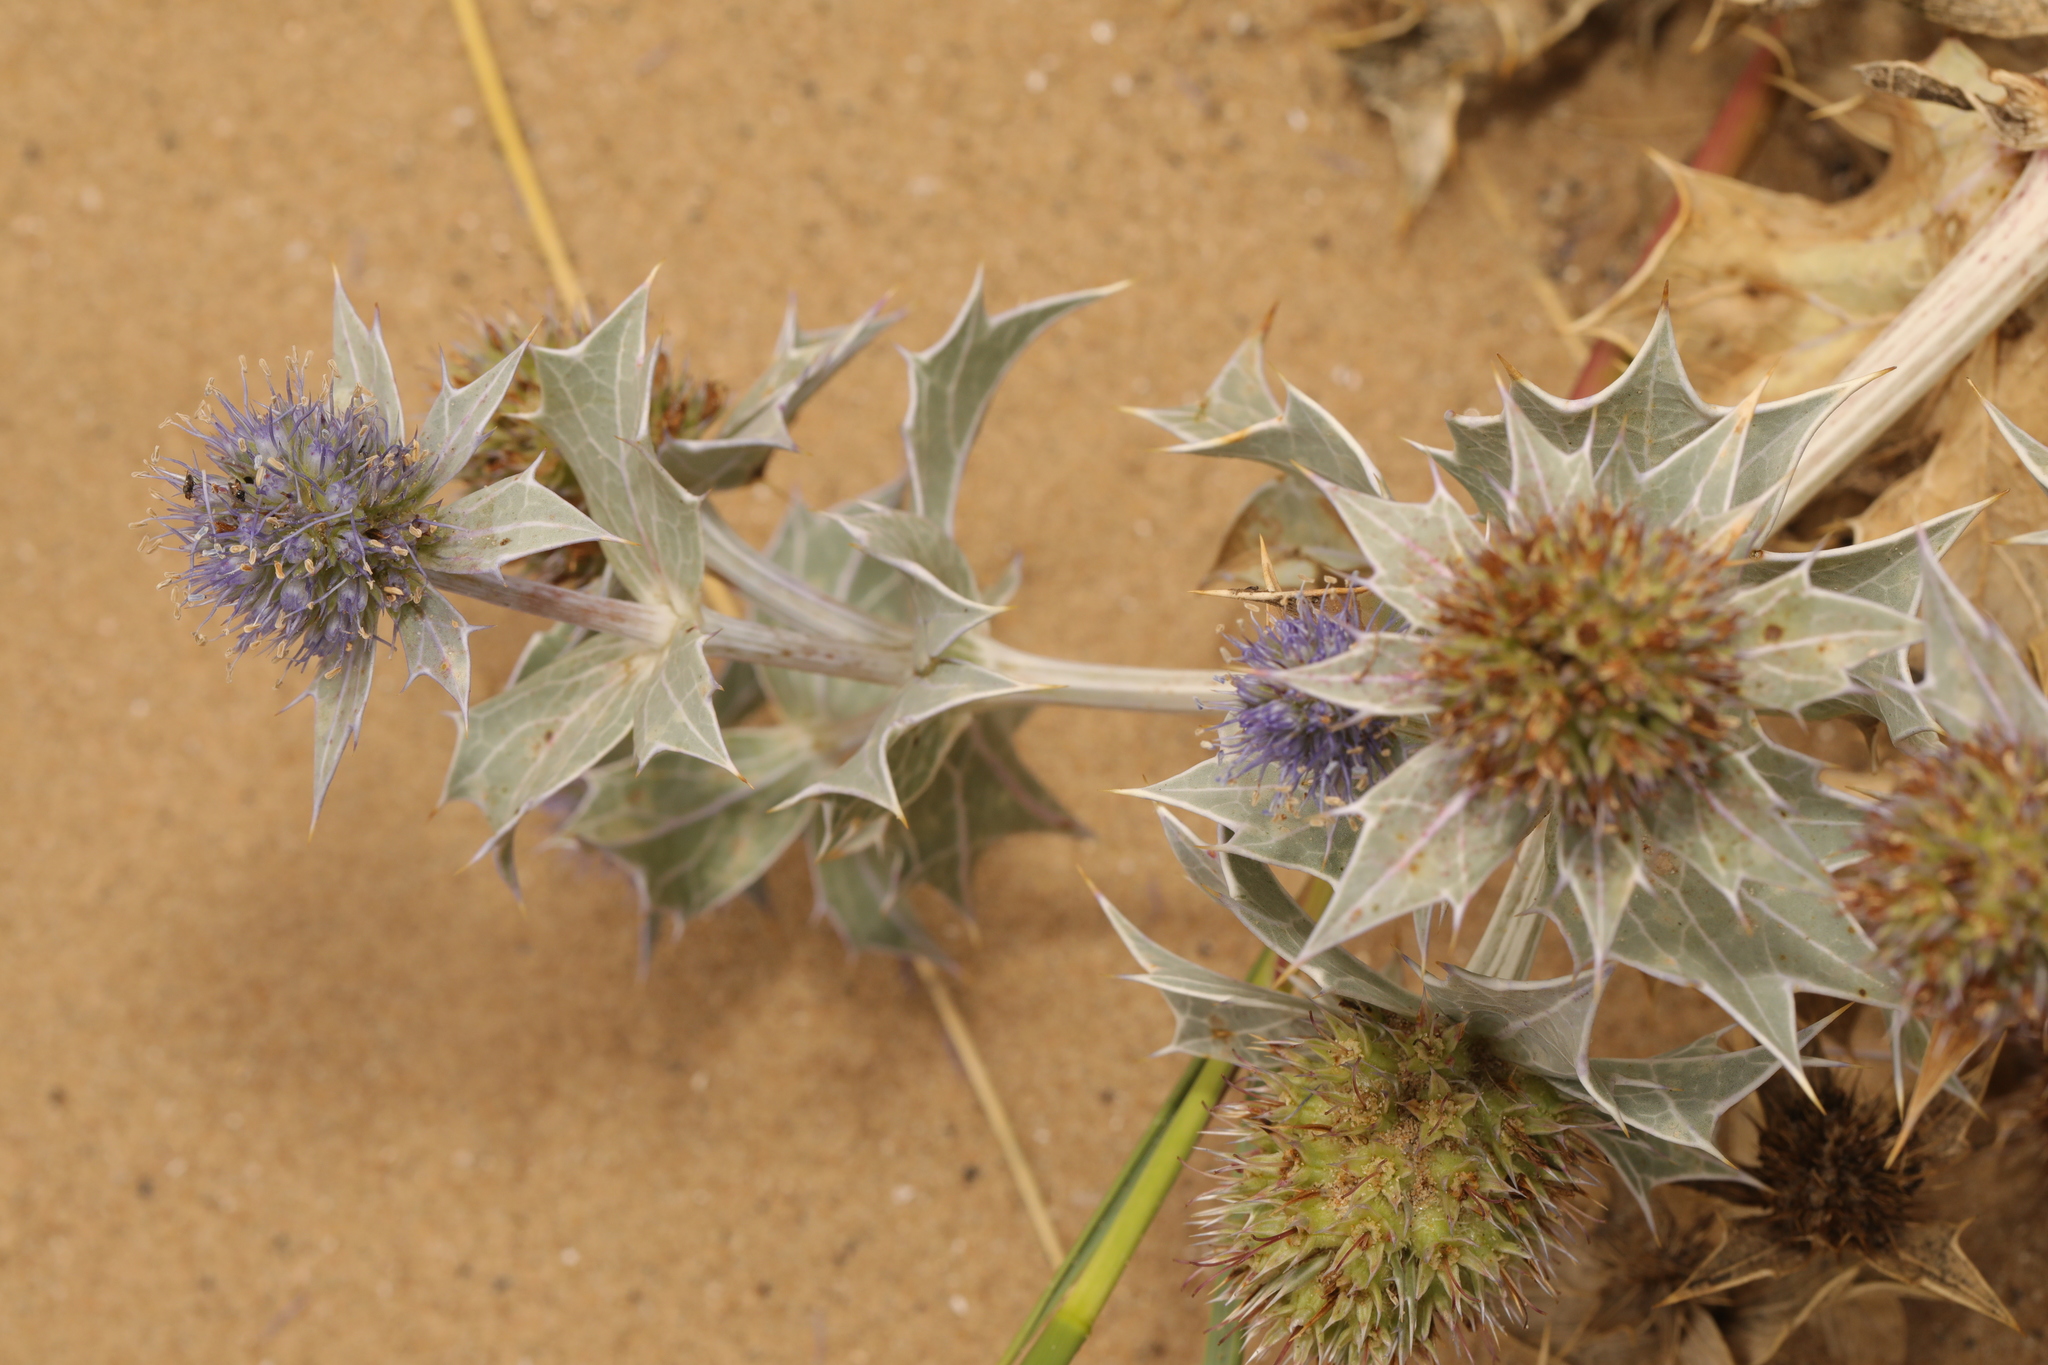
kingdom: Plantae
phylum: Tracheophyta
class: Magnoliopsida
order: Apiales
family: Apiaceae
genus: Eryngium
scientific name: Eryngium maritimum
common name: Sea-holly
